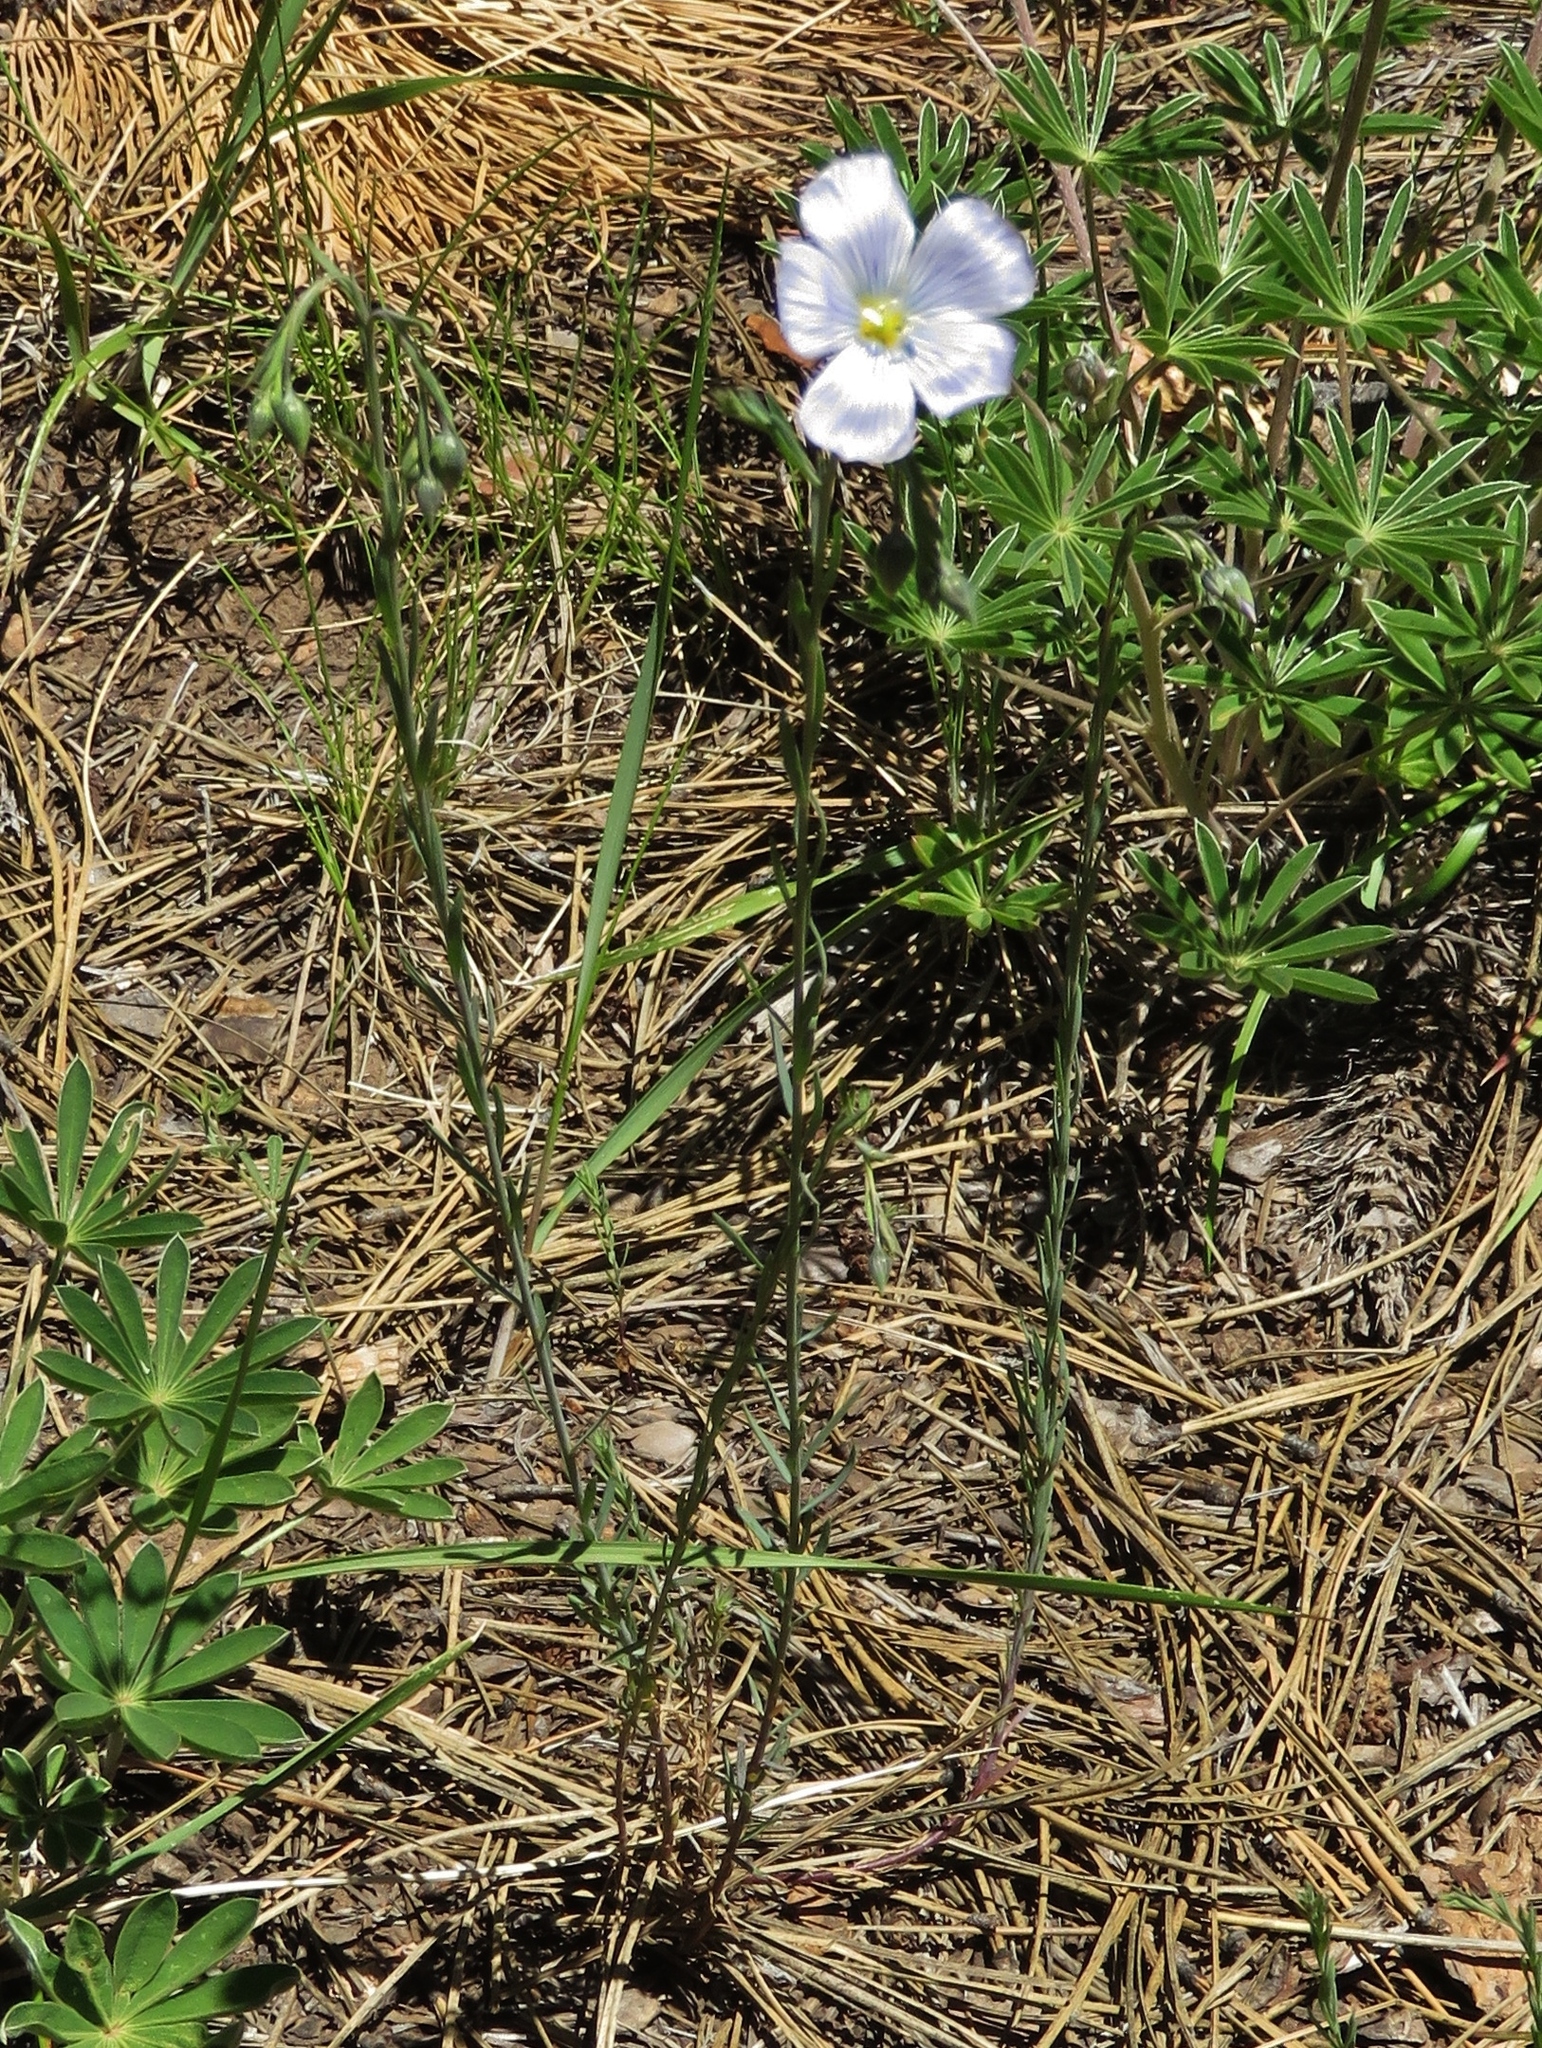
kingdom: Plantae
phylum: Tracheophyta
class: Magnoliopsida
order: Malpighiales
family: Linaceae
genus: Linum
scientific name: Linum lewisii
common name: Prairie flax
